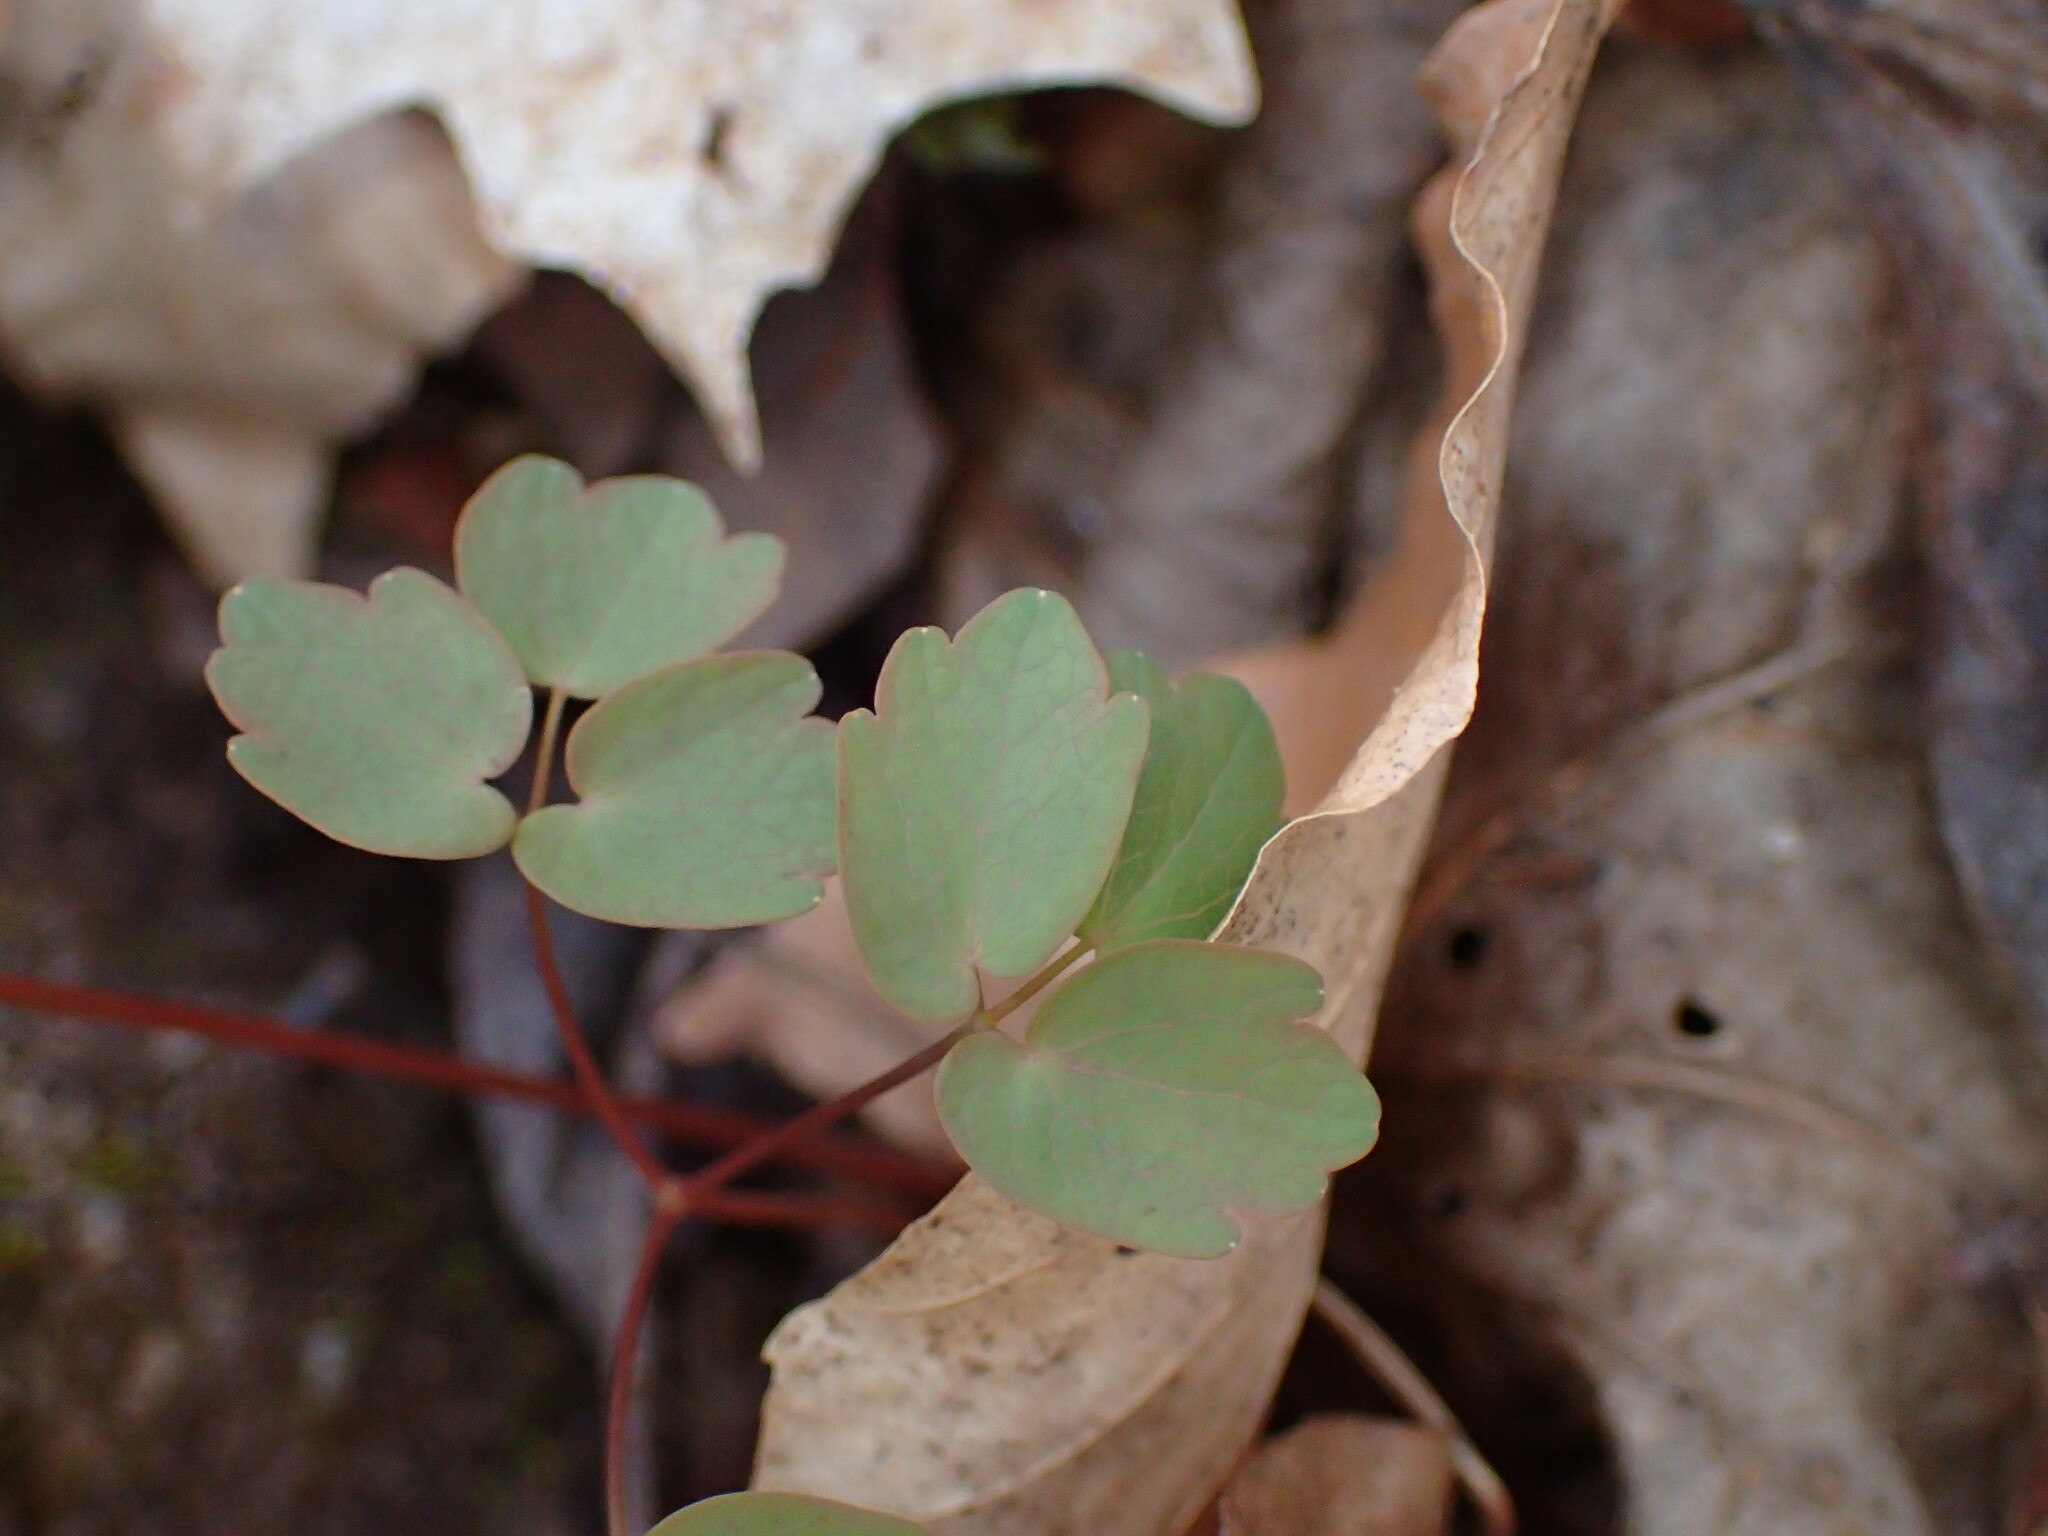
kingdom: Plantae
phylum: Tracheophyta
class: Magnoliopsida
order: Ranunculales
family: Ranunculaceae
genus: Thalictrum
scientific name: Thalictrum thalictroides
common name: Rue-anemone
